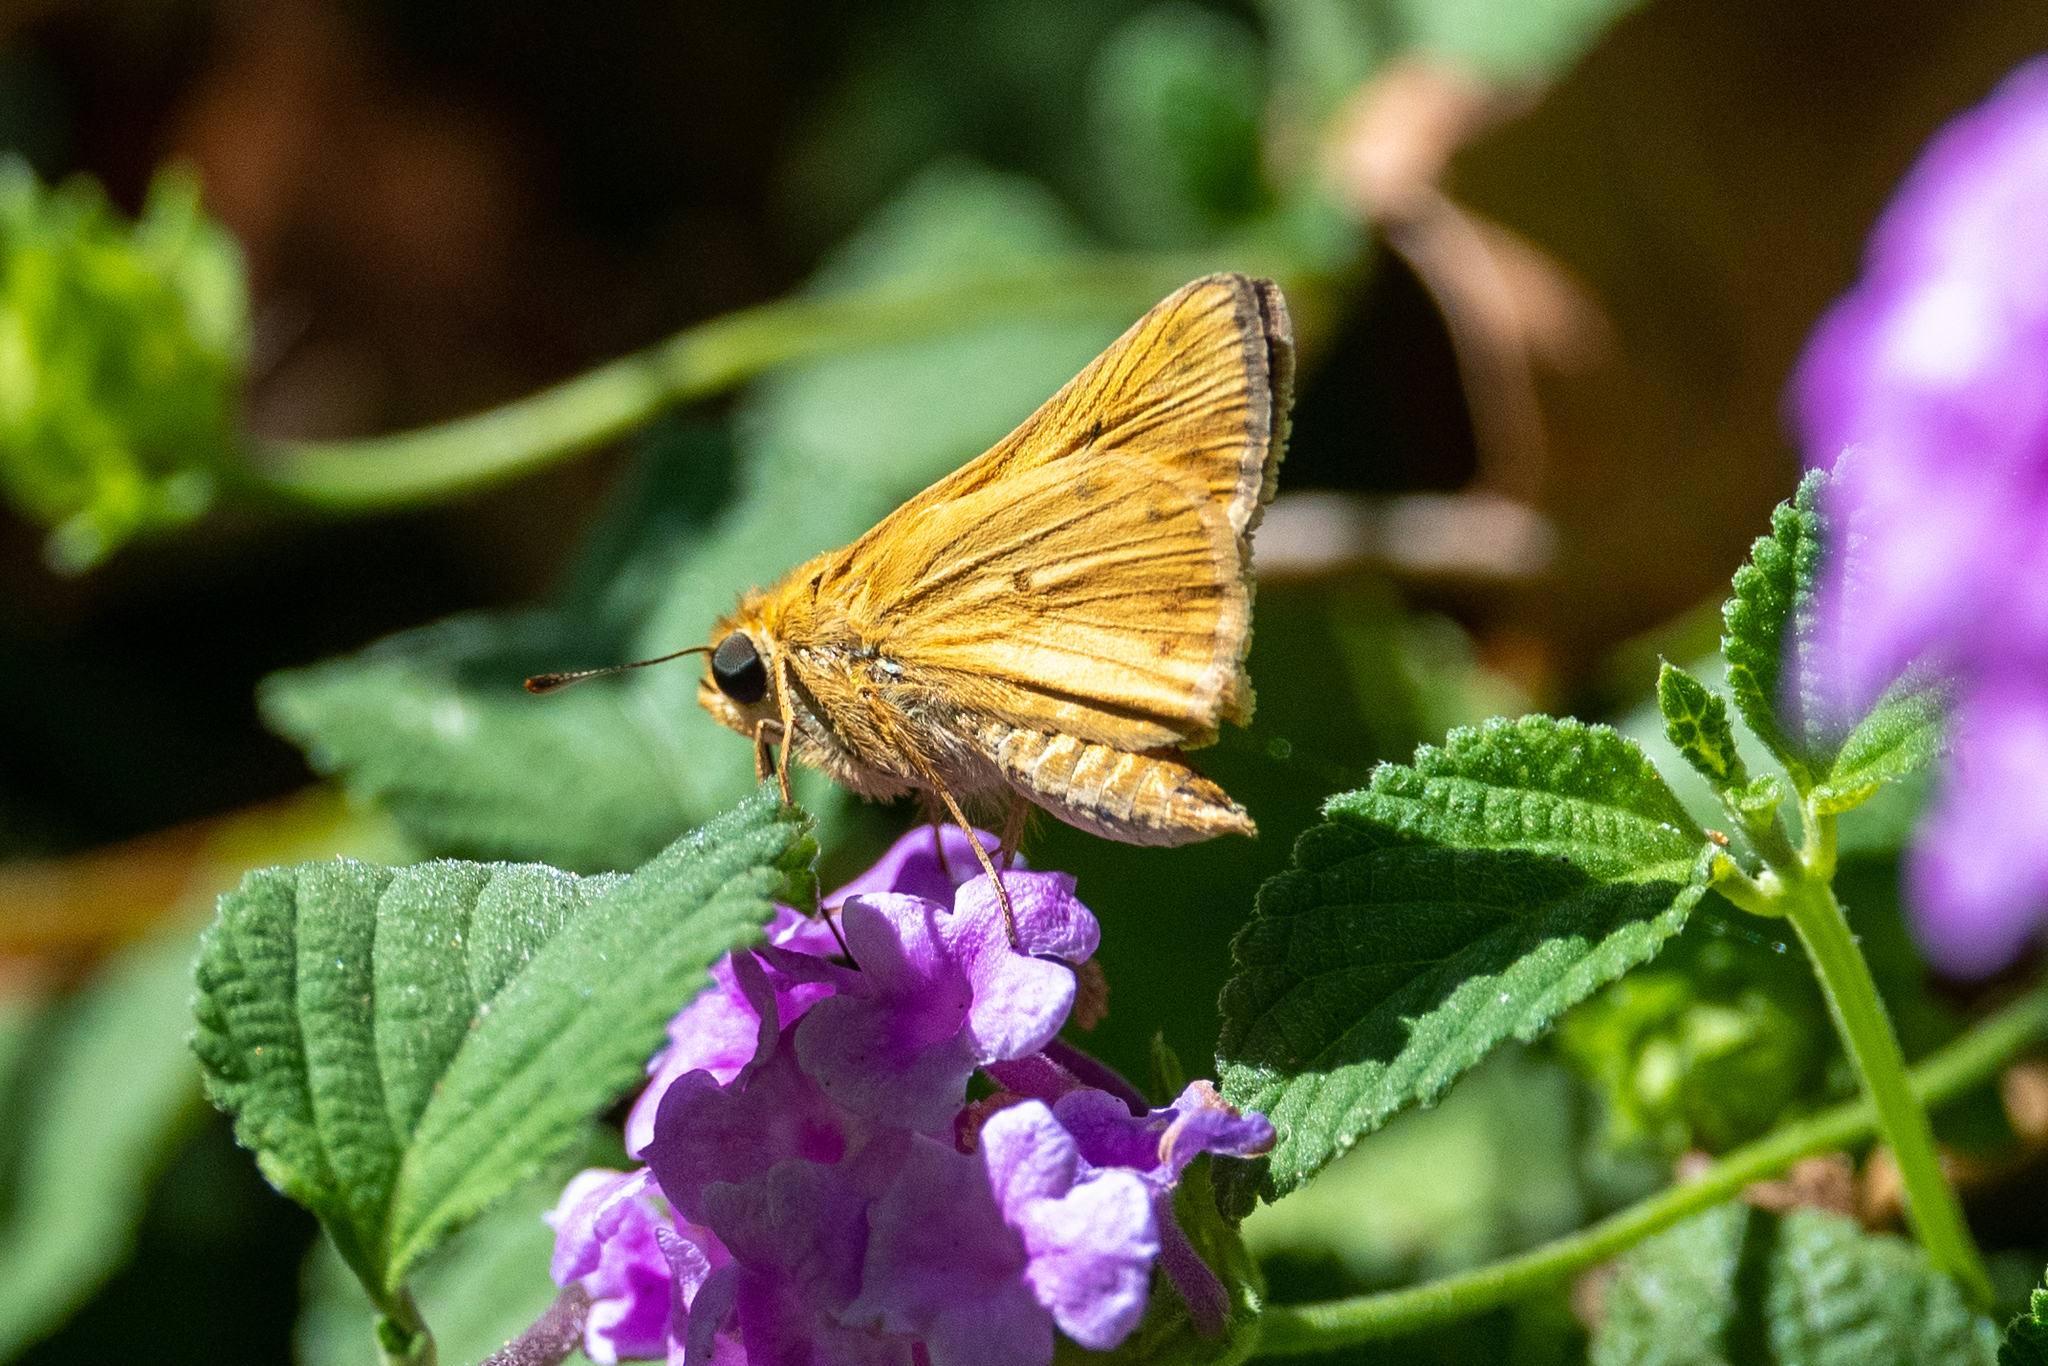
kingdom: Animalia
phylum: Arthropoda
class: Insecta
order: Lepidoptera
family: Hesperiidae
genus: Hylephila
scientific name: Hylephila phyleus
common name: Fiery skipper
